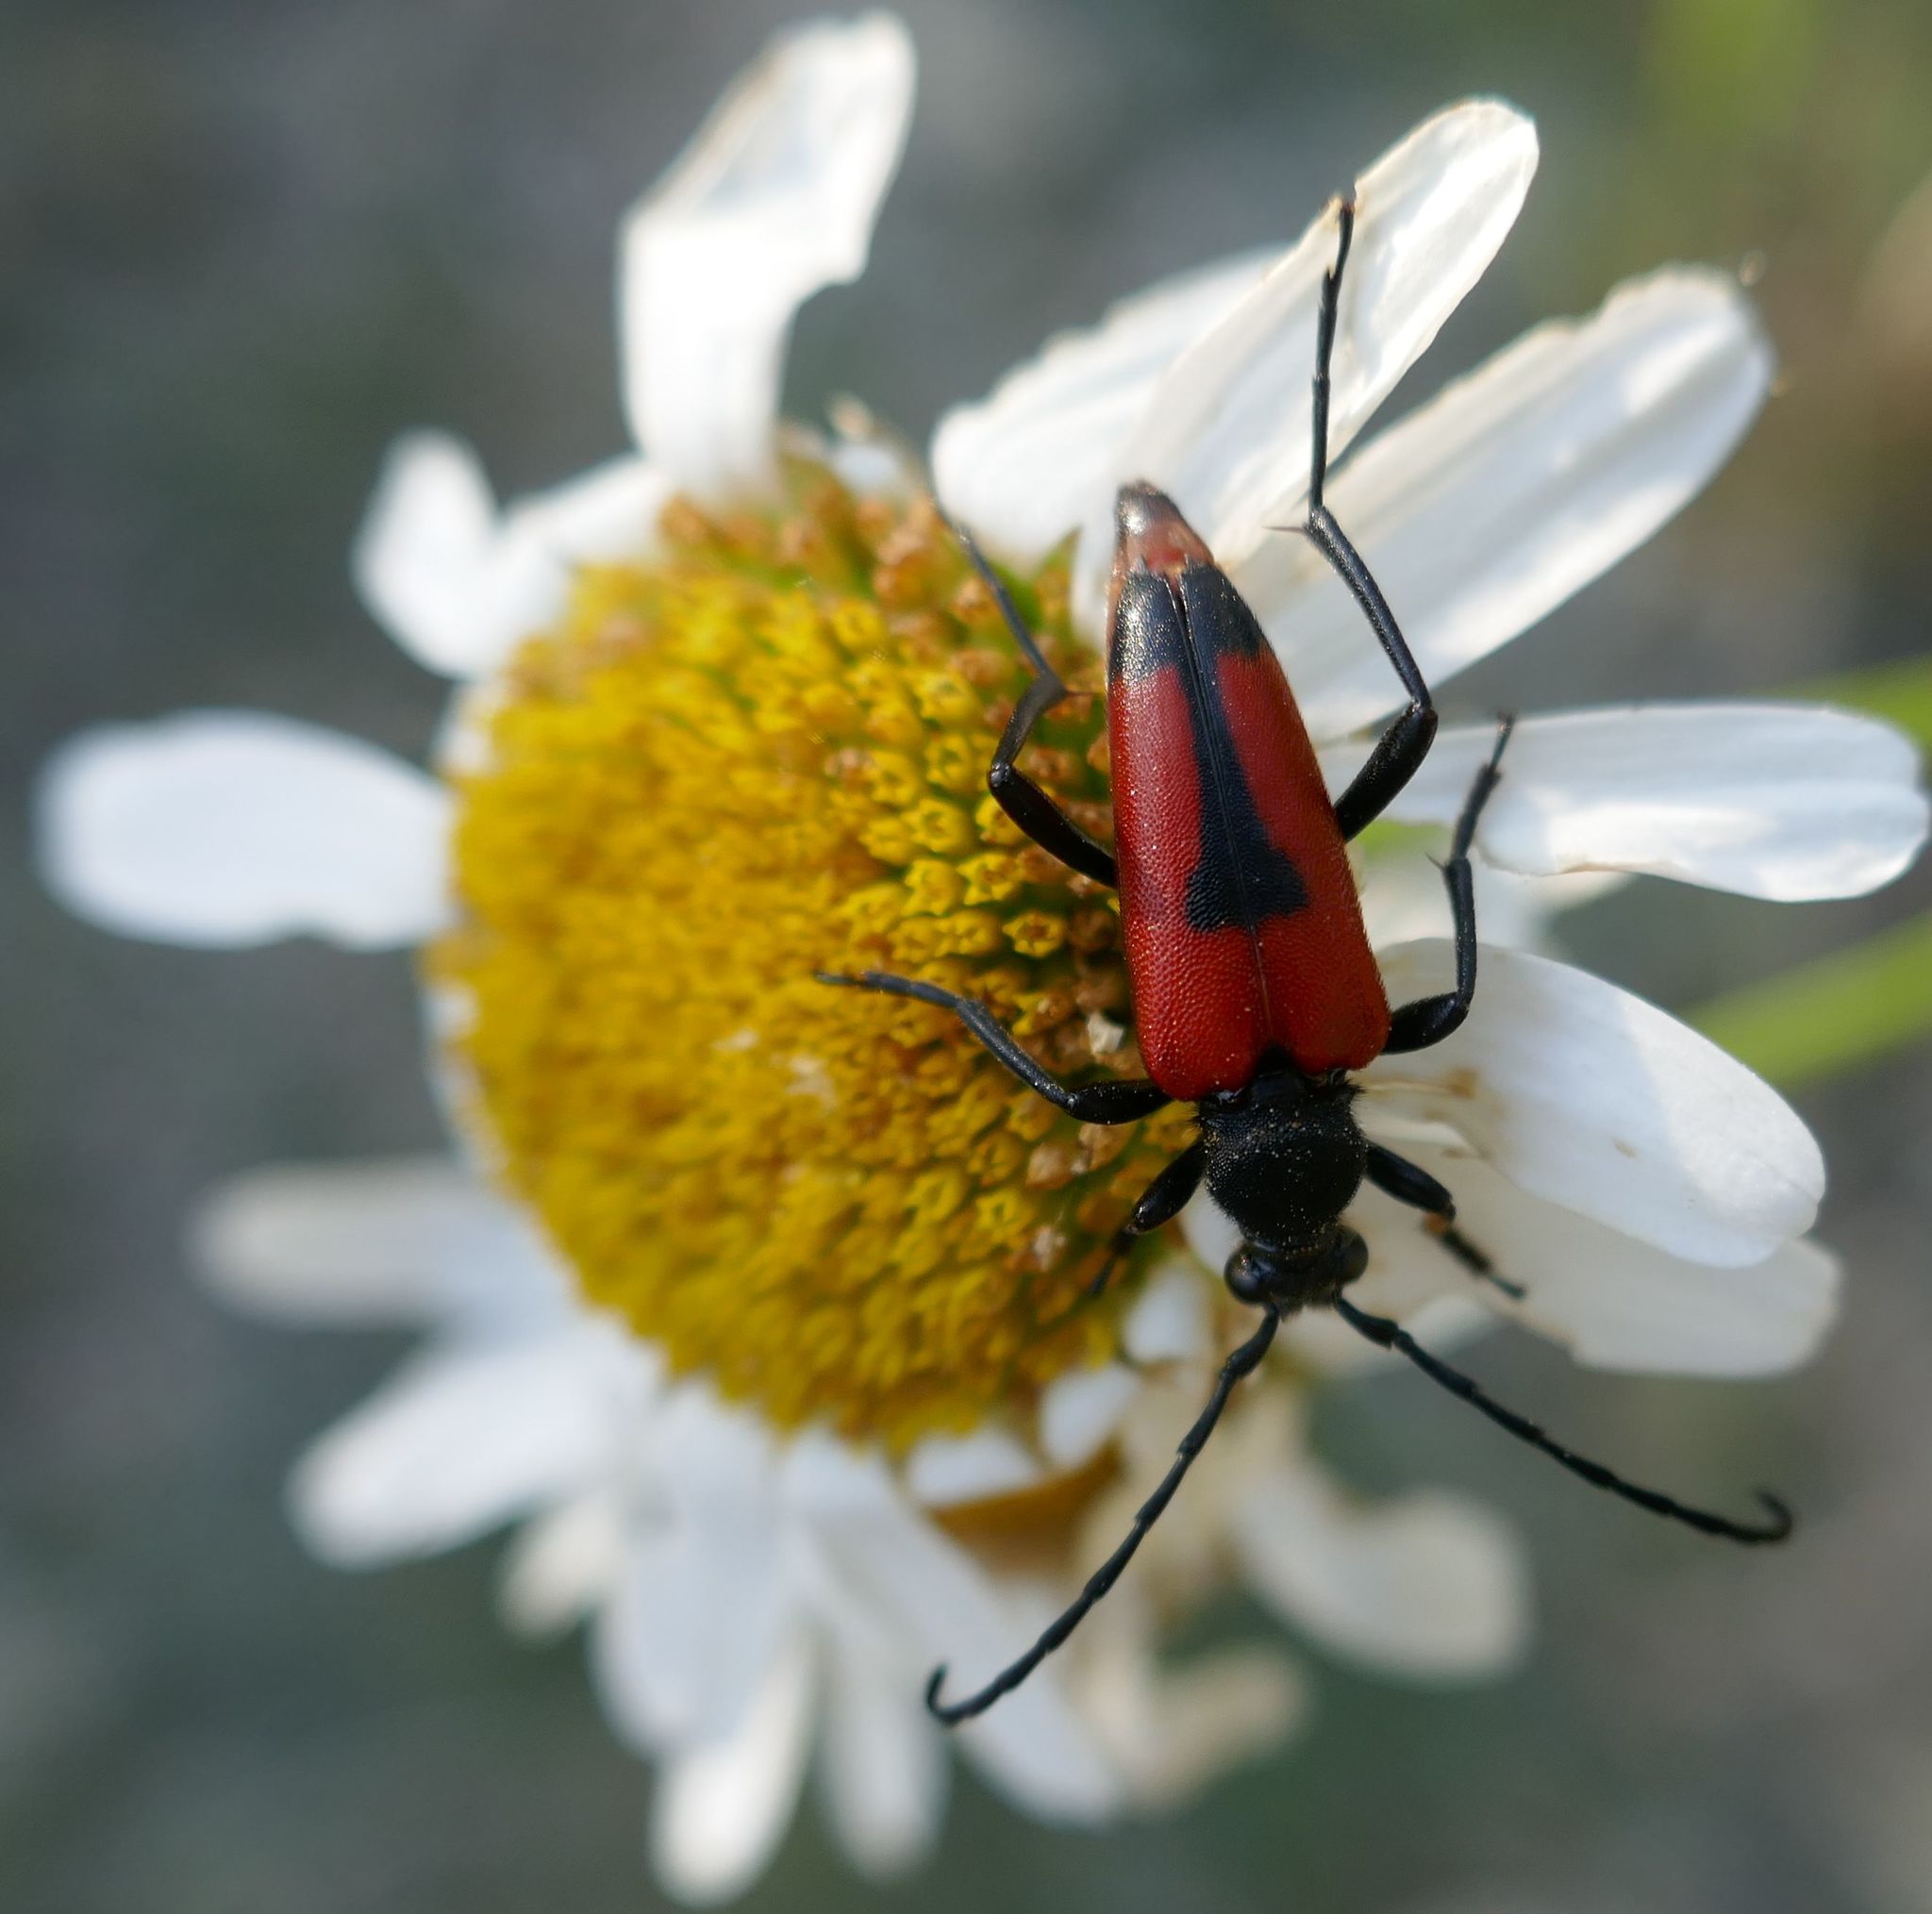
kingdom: Animalia
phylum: Arthropoda
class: Insecta
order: Coleoptera
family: Cerambycidae
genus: Stictoleptura
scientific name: Stictoleptura cordigera
